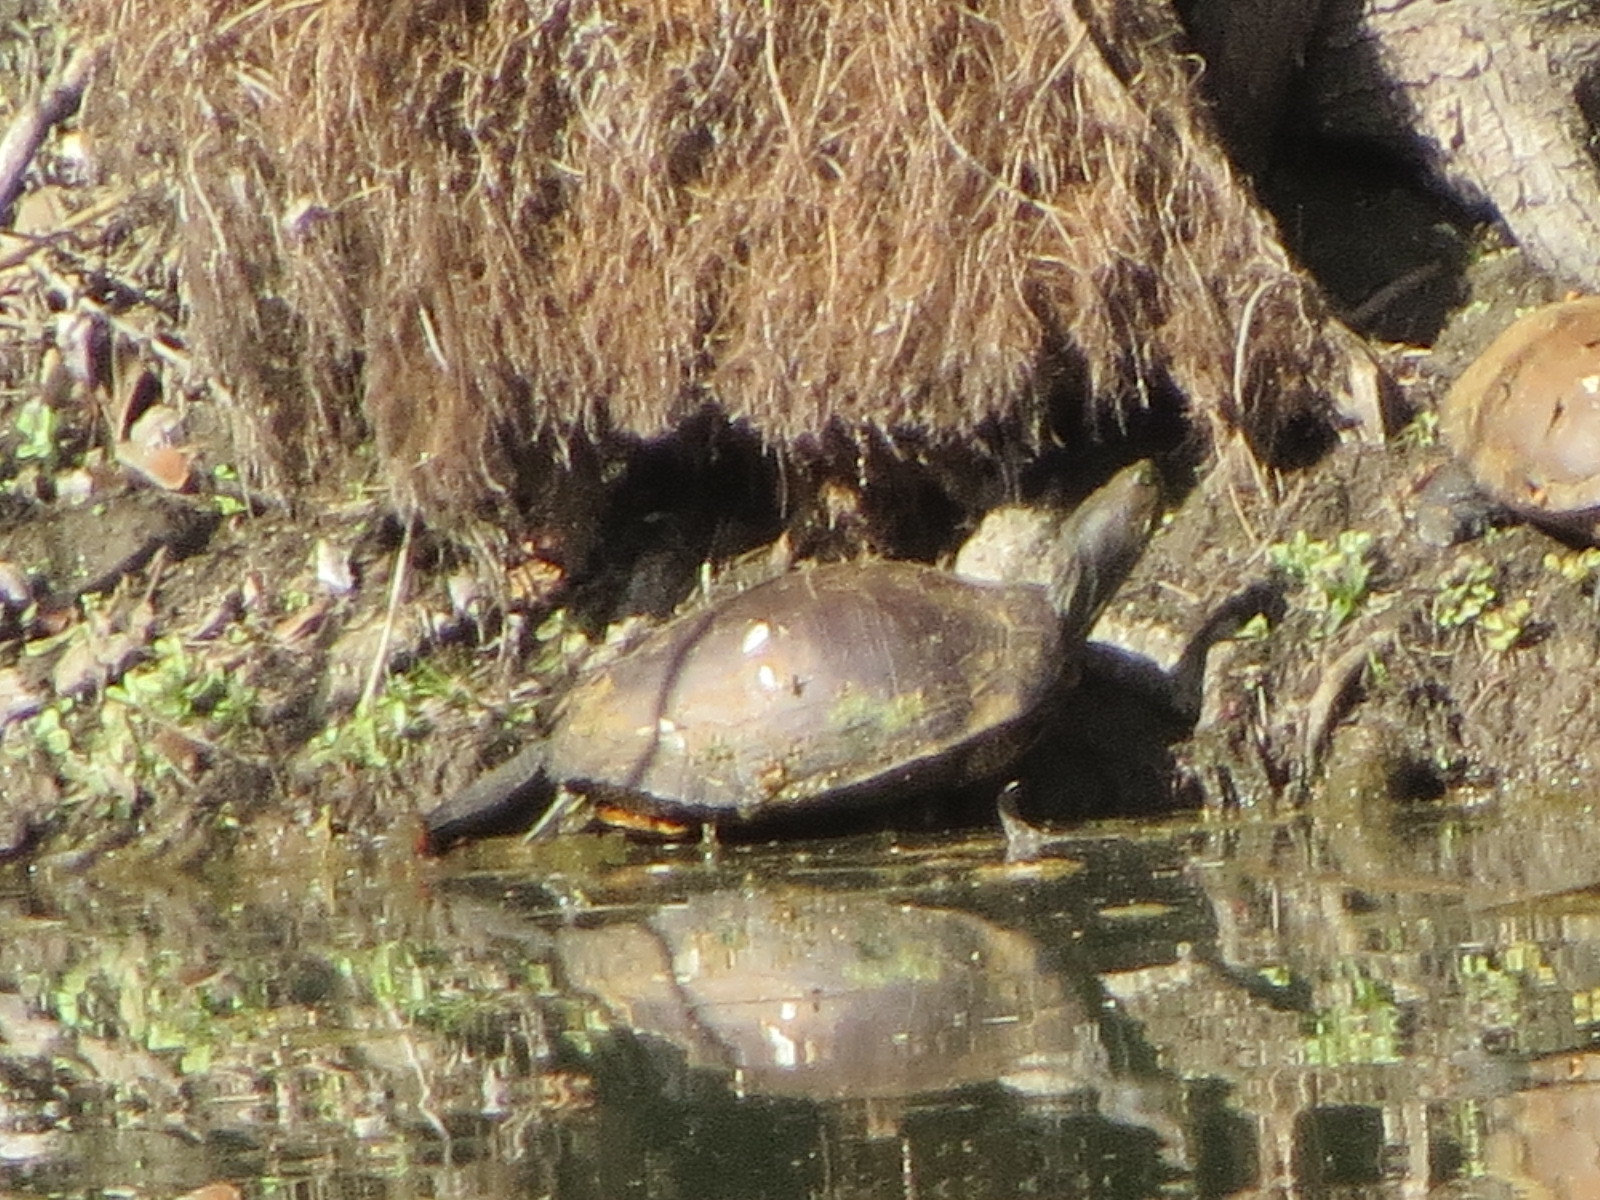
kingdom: Animalia
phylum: Chordata
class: Testudines
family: Emydidae
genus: Trachemys
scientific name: Trachemys scripta
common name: Slider
